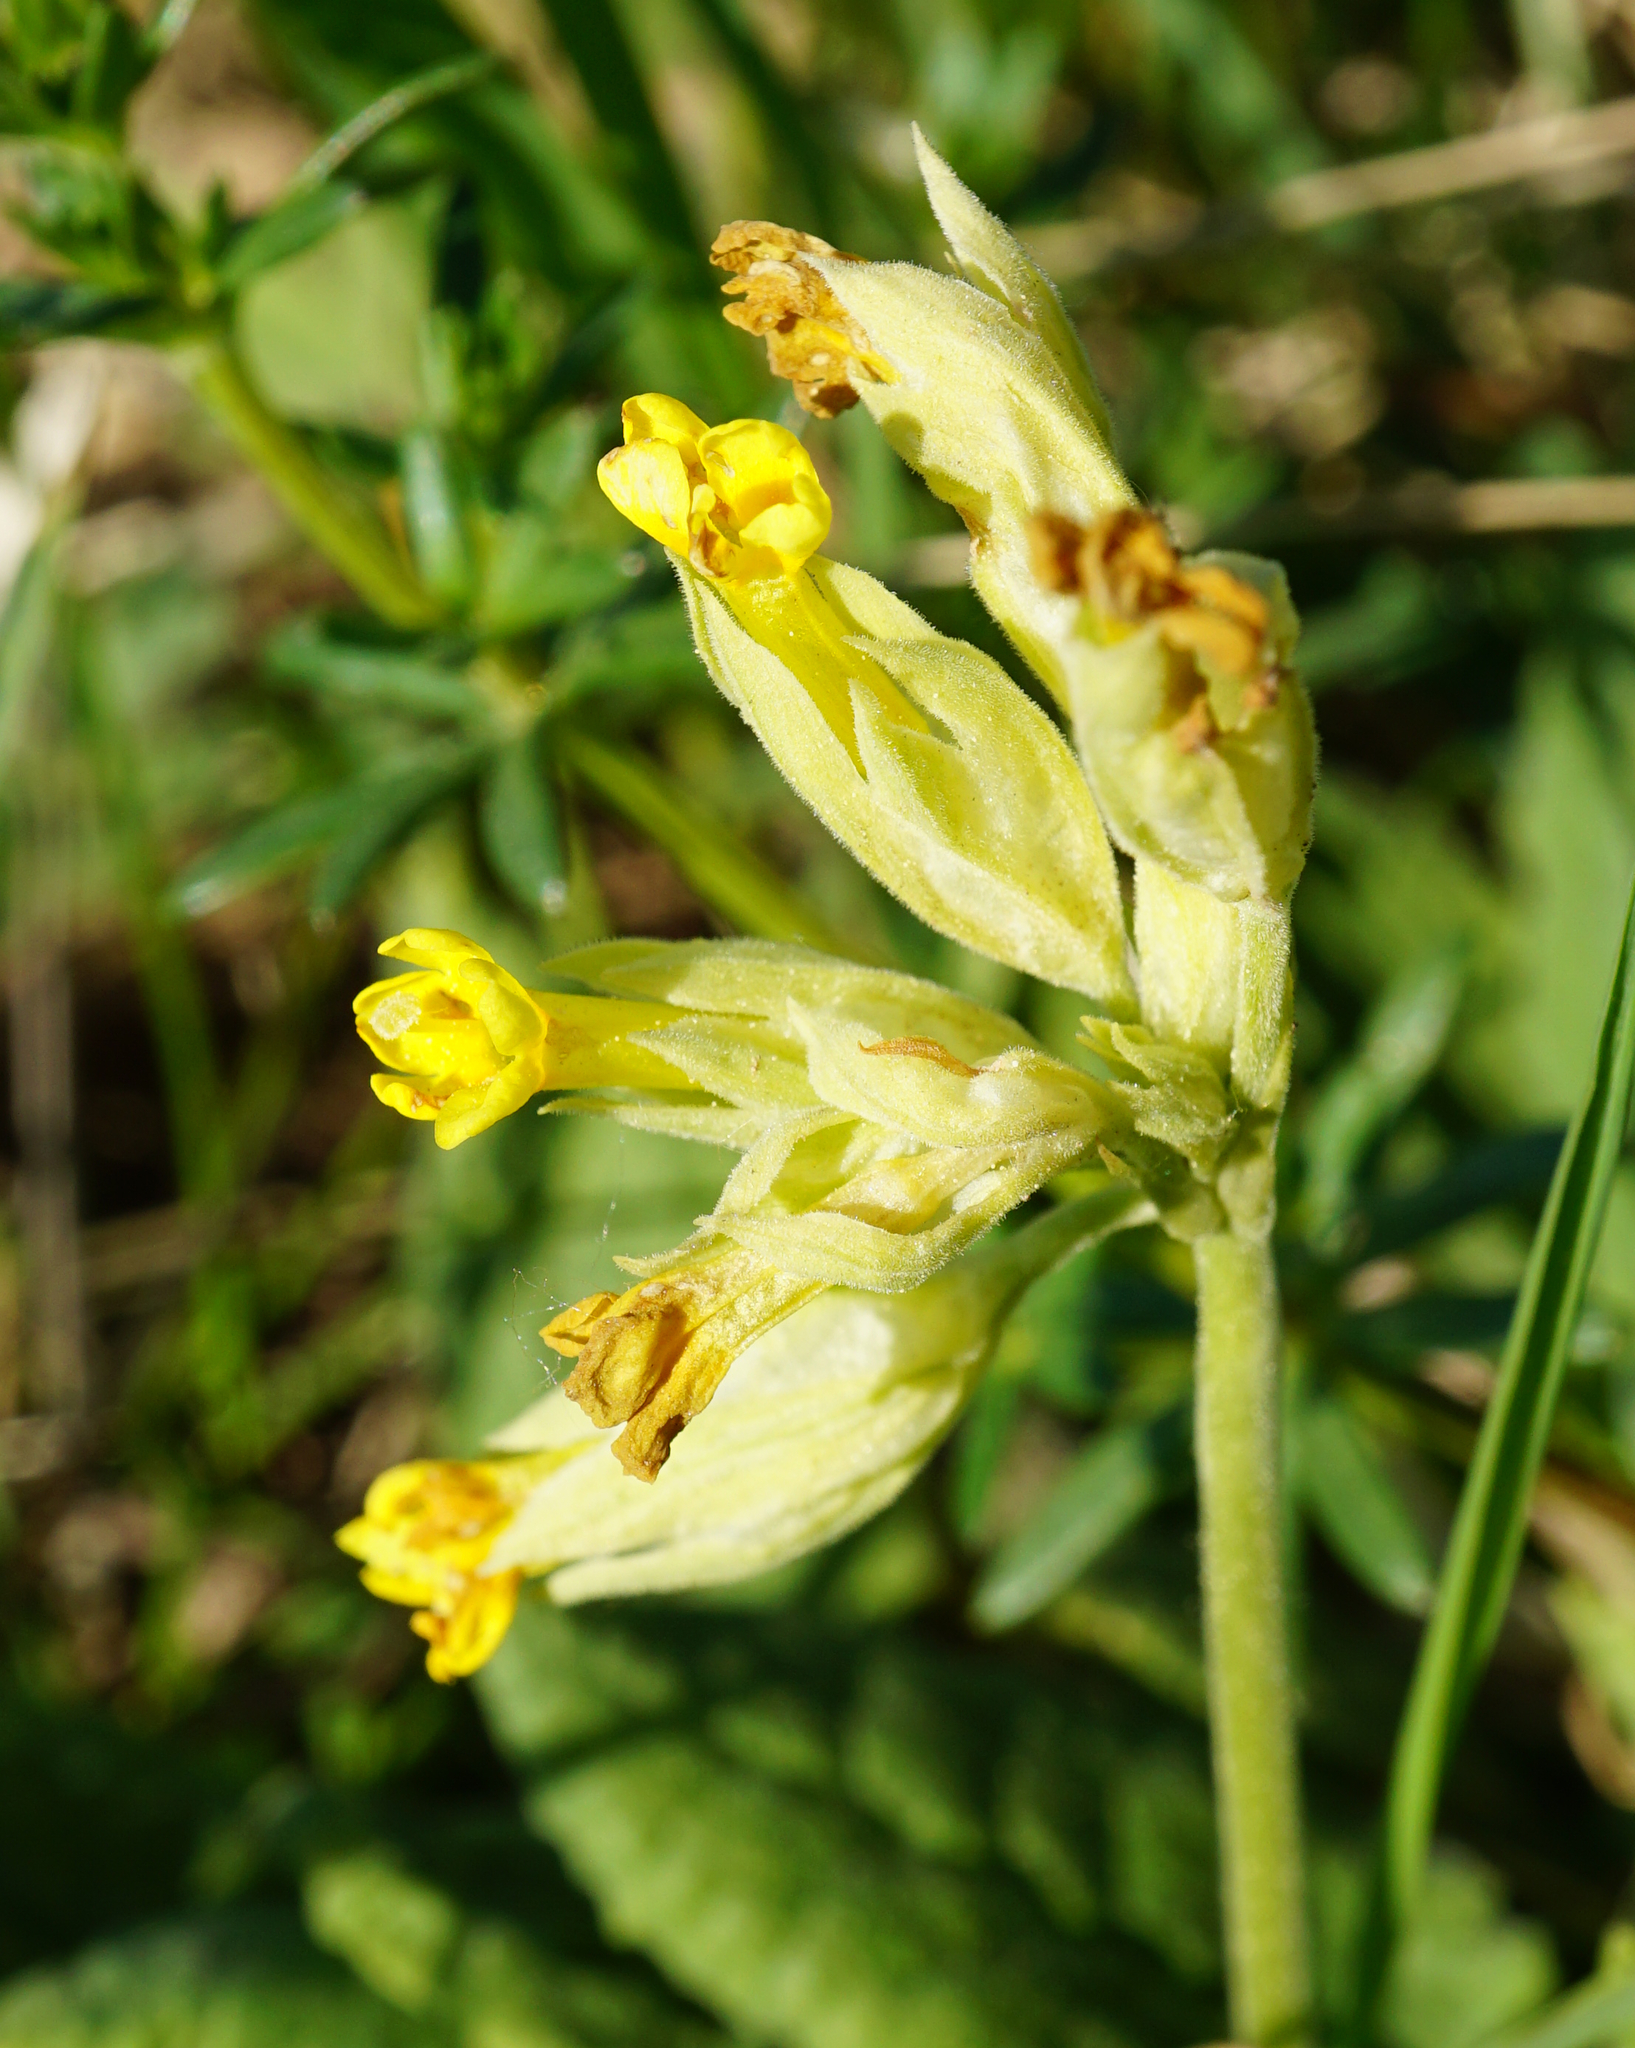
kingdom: Plantae
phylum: Tracheophyta
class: Magnoliopsida
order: Ericales
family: Primulaceae
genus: Primula
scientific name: Primula veris
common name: Cowslip
